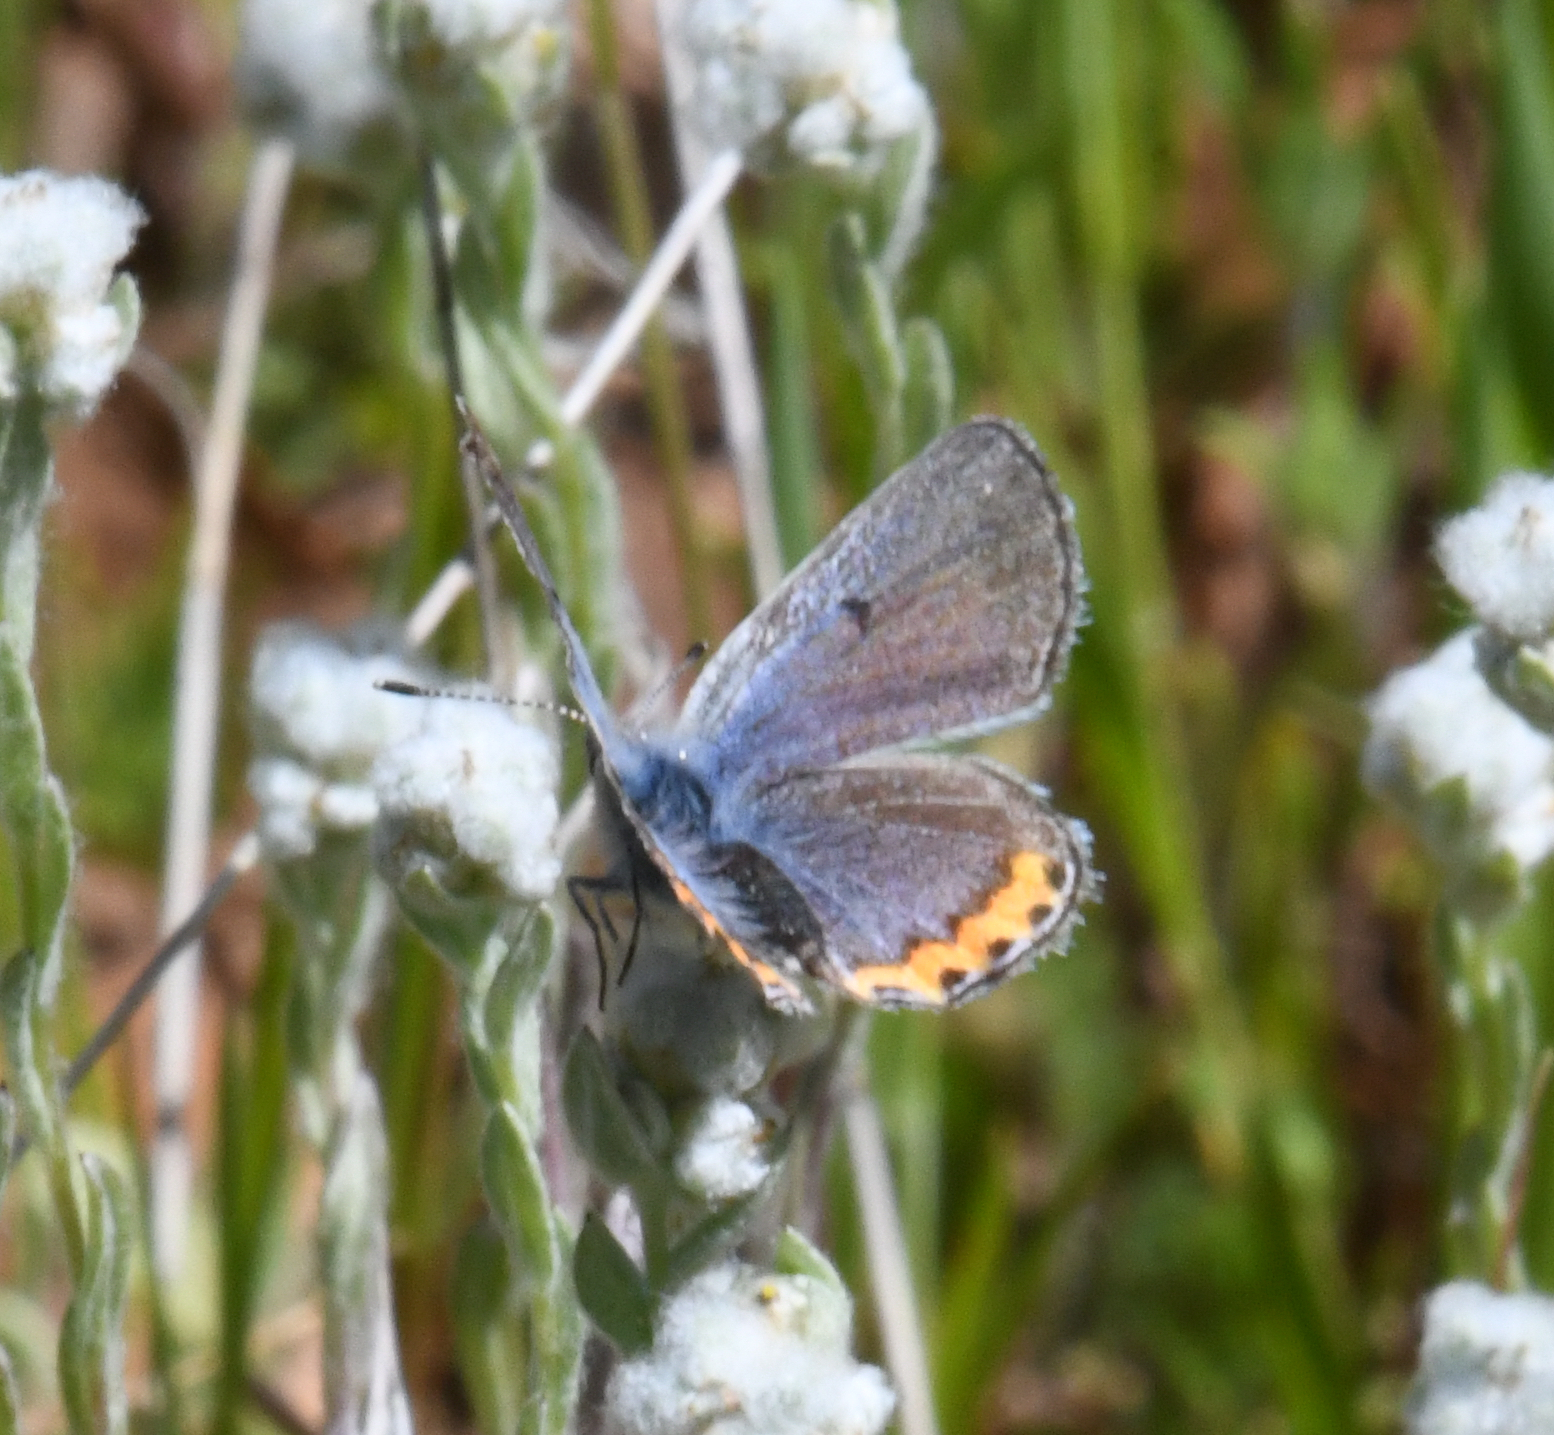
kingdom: Animalia
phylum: Arthropoda
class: Insecta
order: Lepidoptera
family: Lycaenidae
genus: Icaricia
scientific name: Icaricia acmon
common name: Acmon blue
